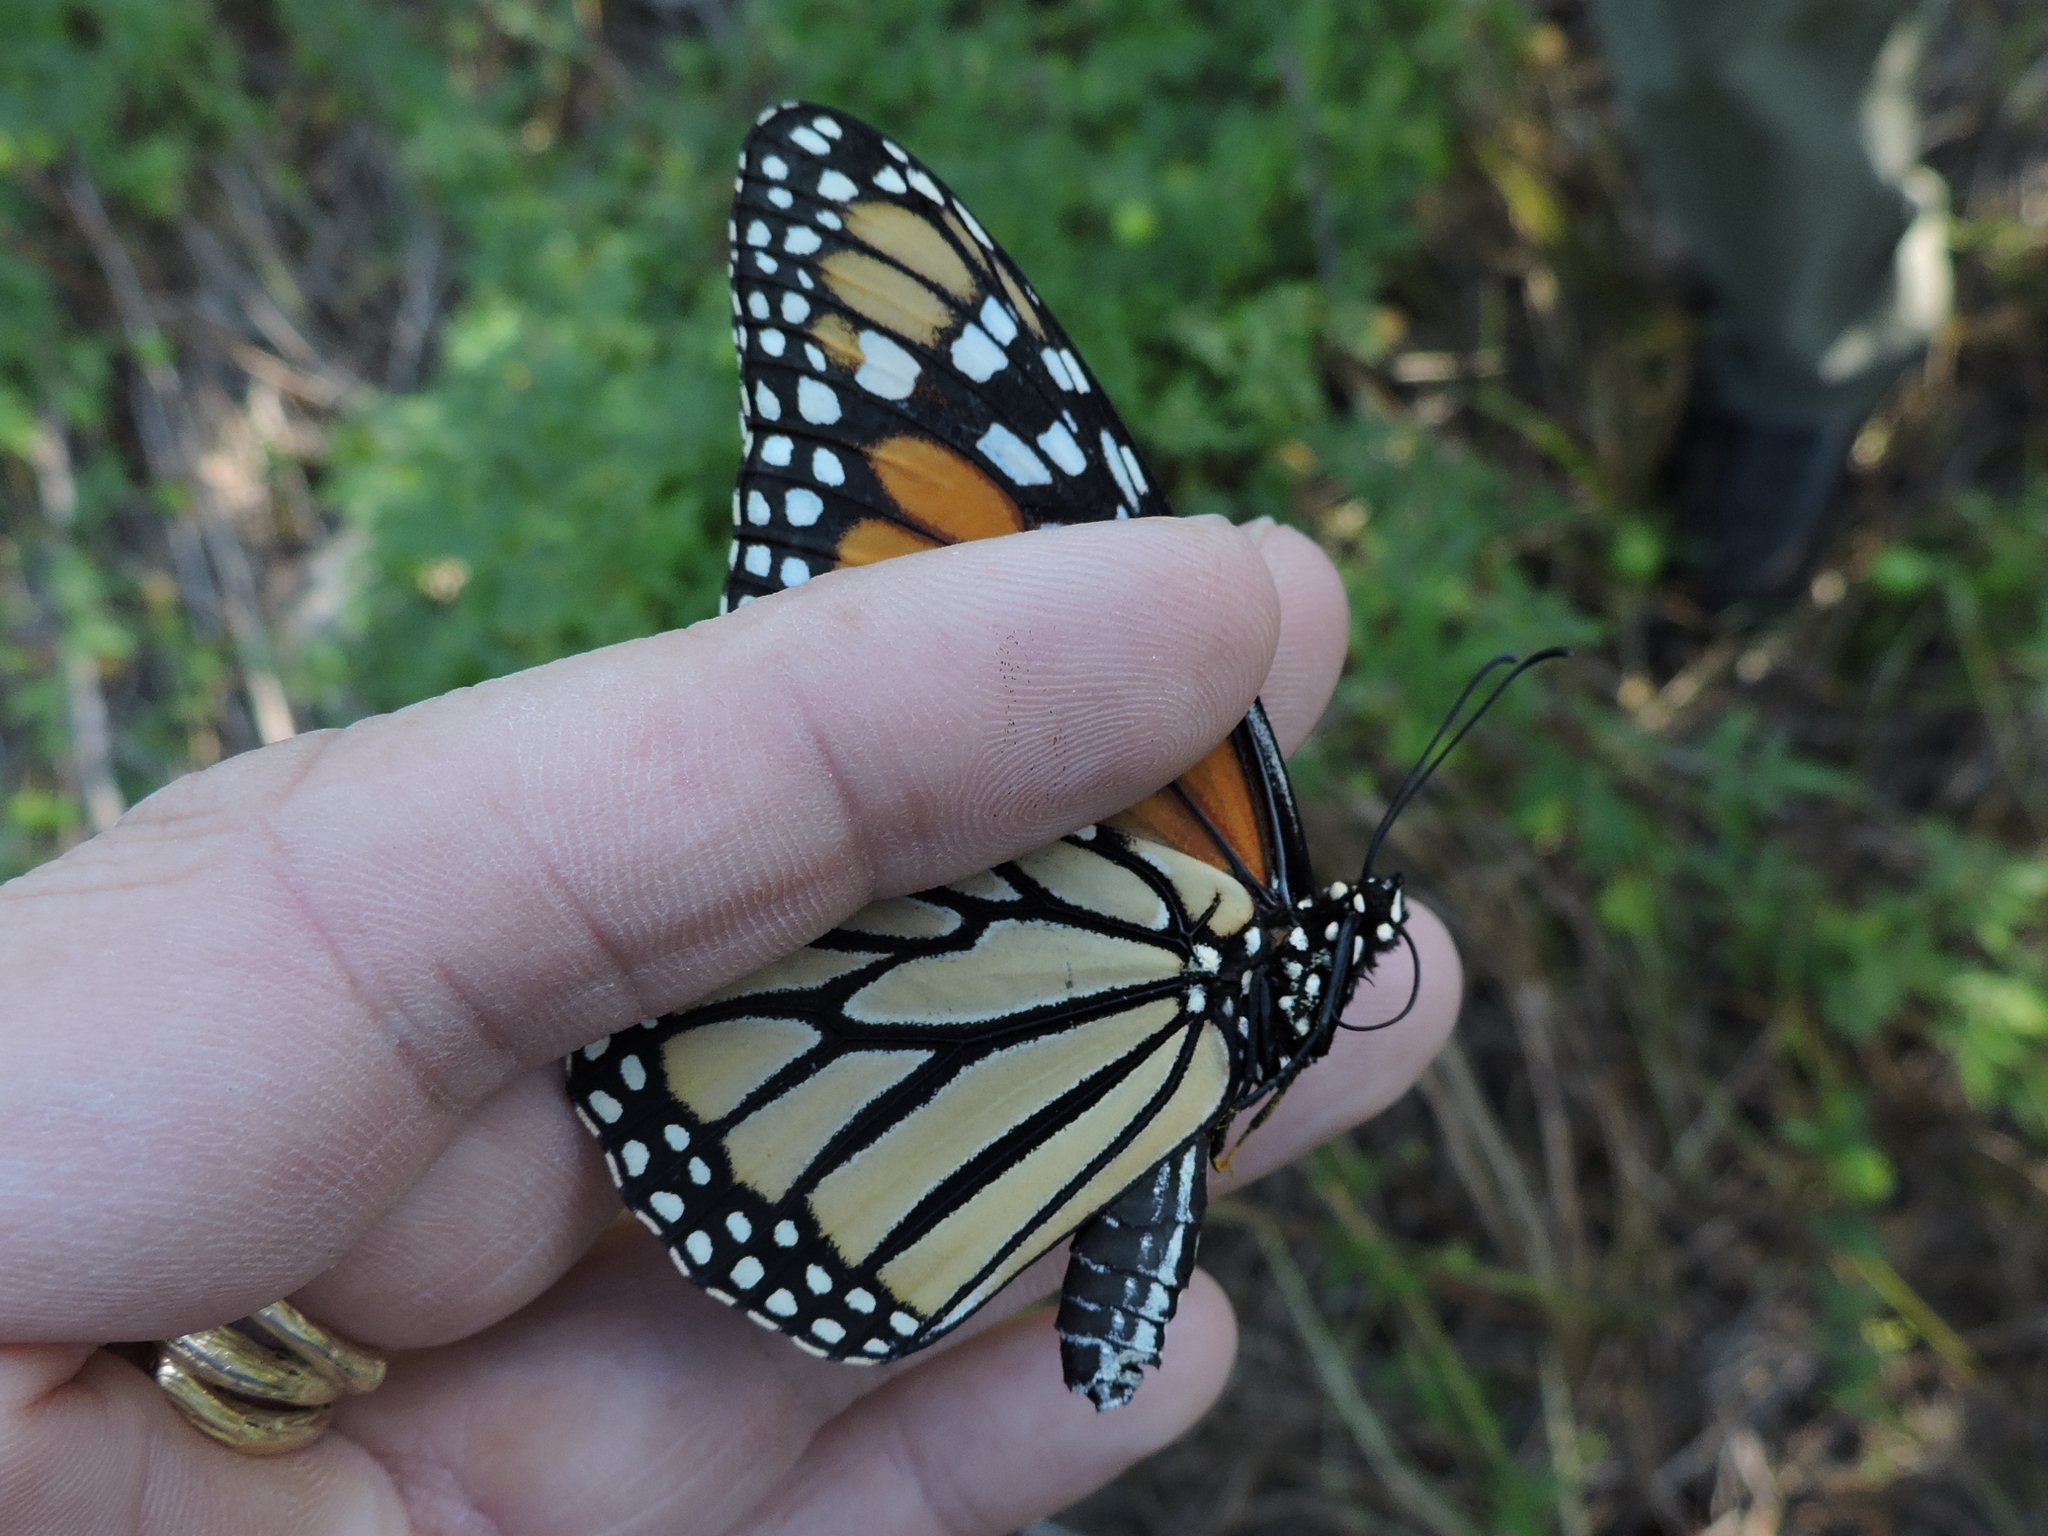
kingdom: Animalia
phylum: Arthropoda
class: Insecta
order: Lepidoptera
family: Nymphalidae
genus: Danaus
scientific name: Danaus plexippus
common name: Monarch
